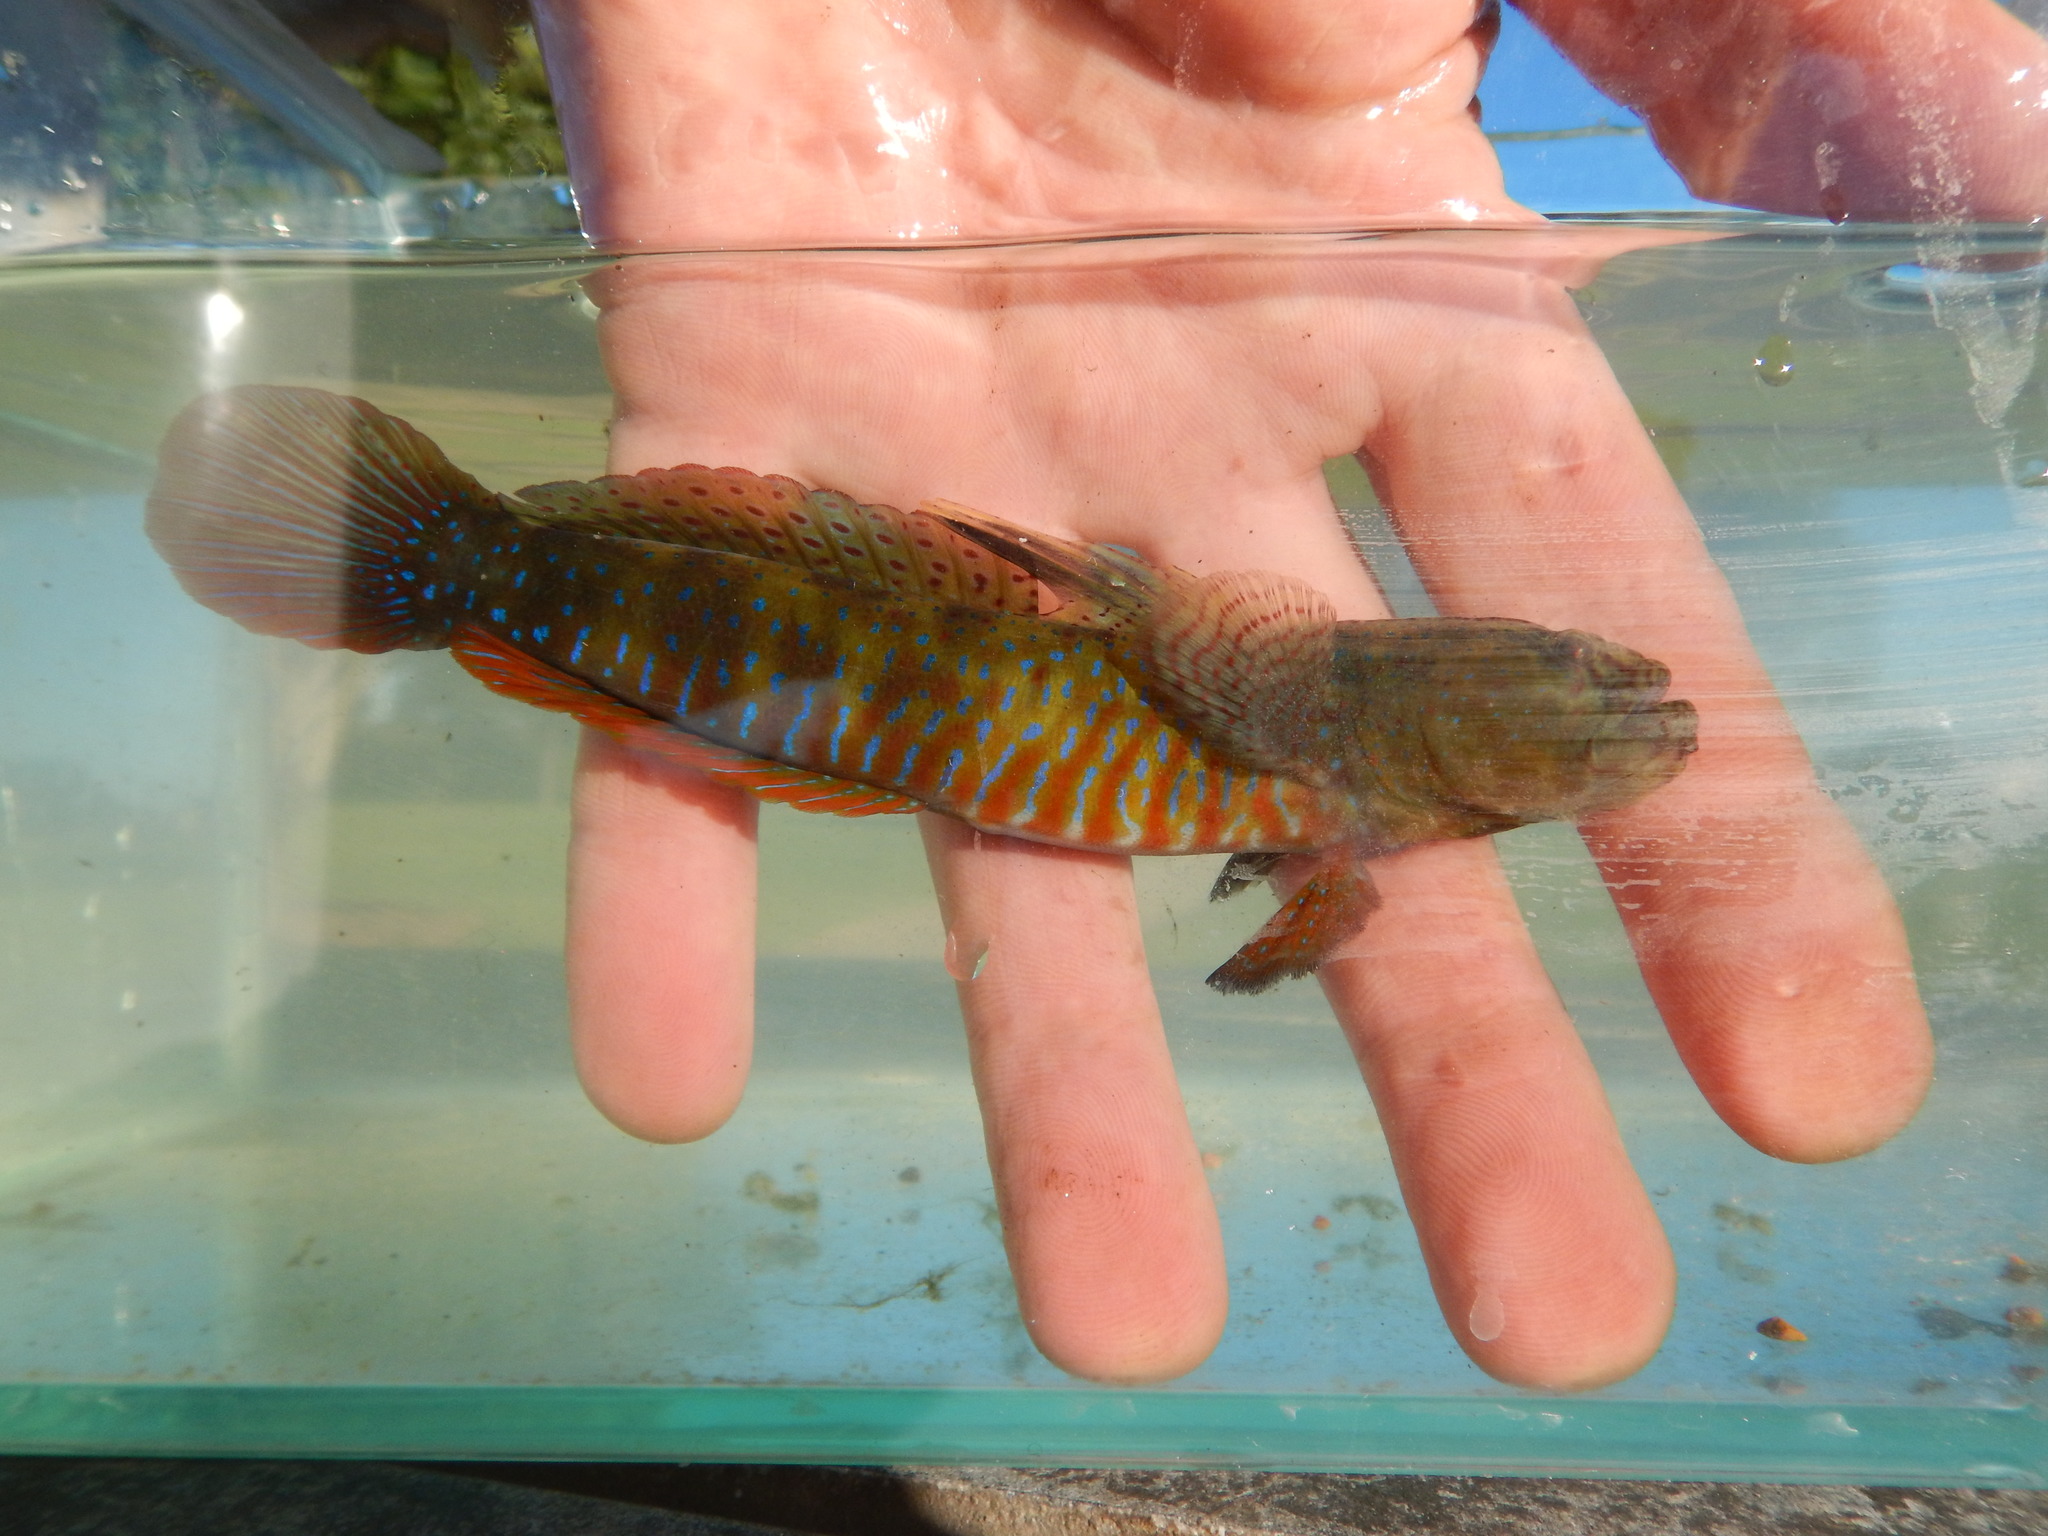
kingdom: Animalia
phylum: Chordata
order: Perciformes
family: Gobiidae
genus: Cryptocentroides
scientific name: Cryptocentroides gobioides
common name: Crested oystergoby
